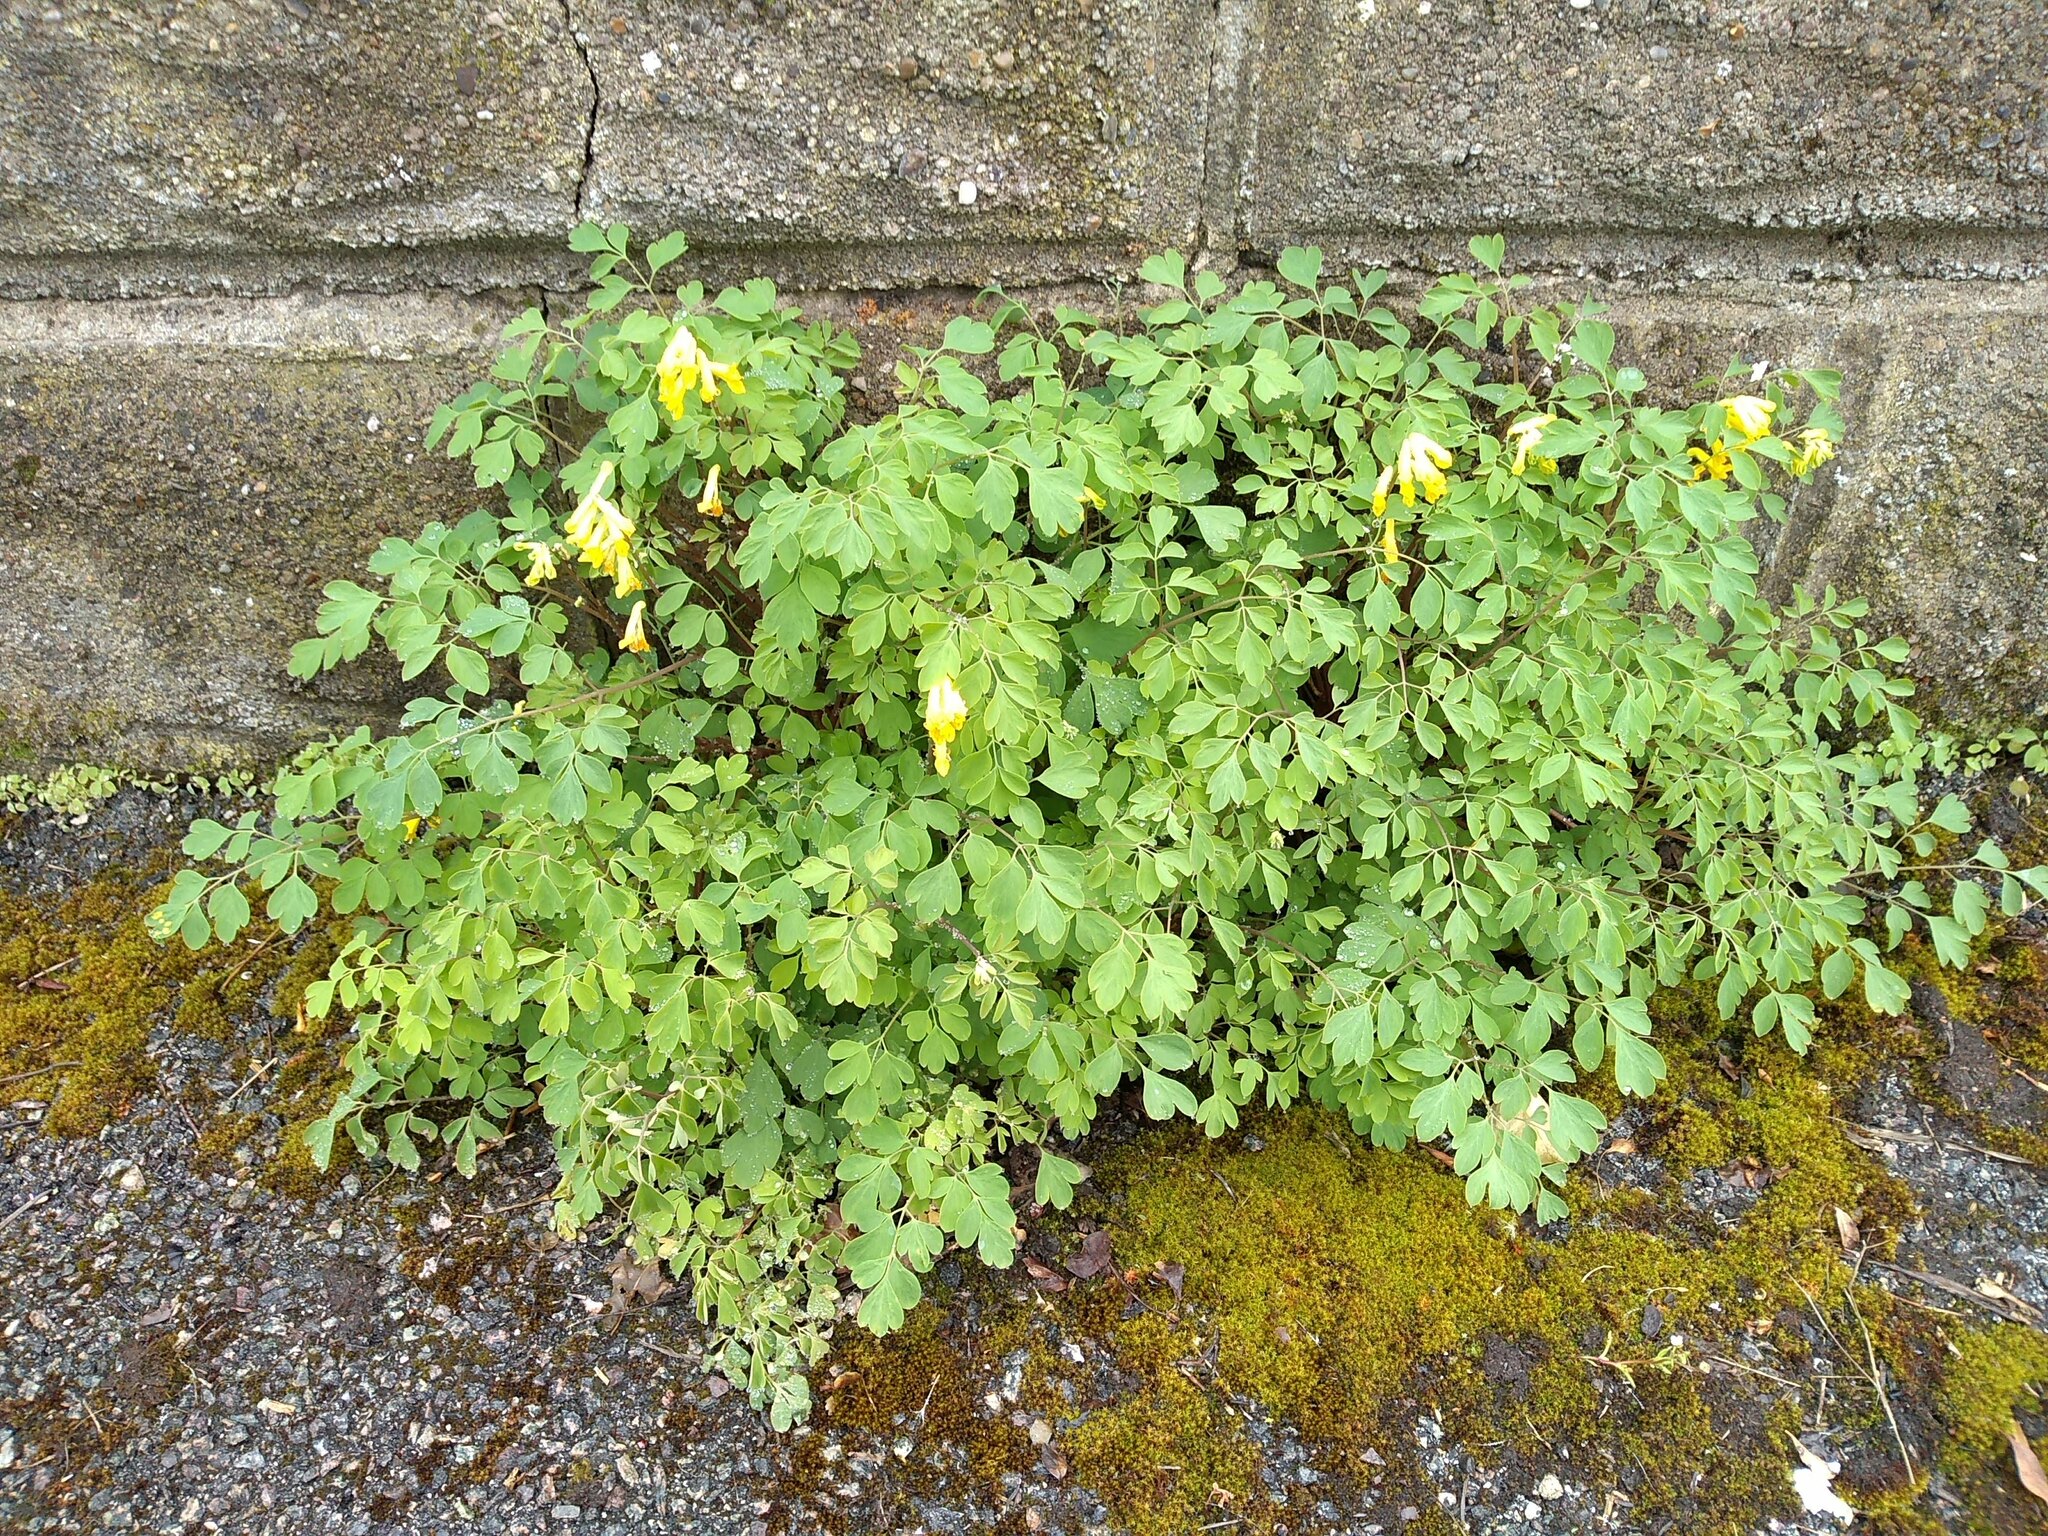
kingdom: Plantae
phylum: Tracheophyta
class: Magnoliopsida
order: Ranunculales
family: Papaveraceae
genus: Pseudofumaria
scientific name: Pseudofumaria lutea
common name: Yellow corydalis
